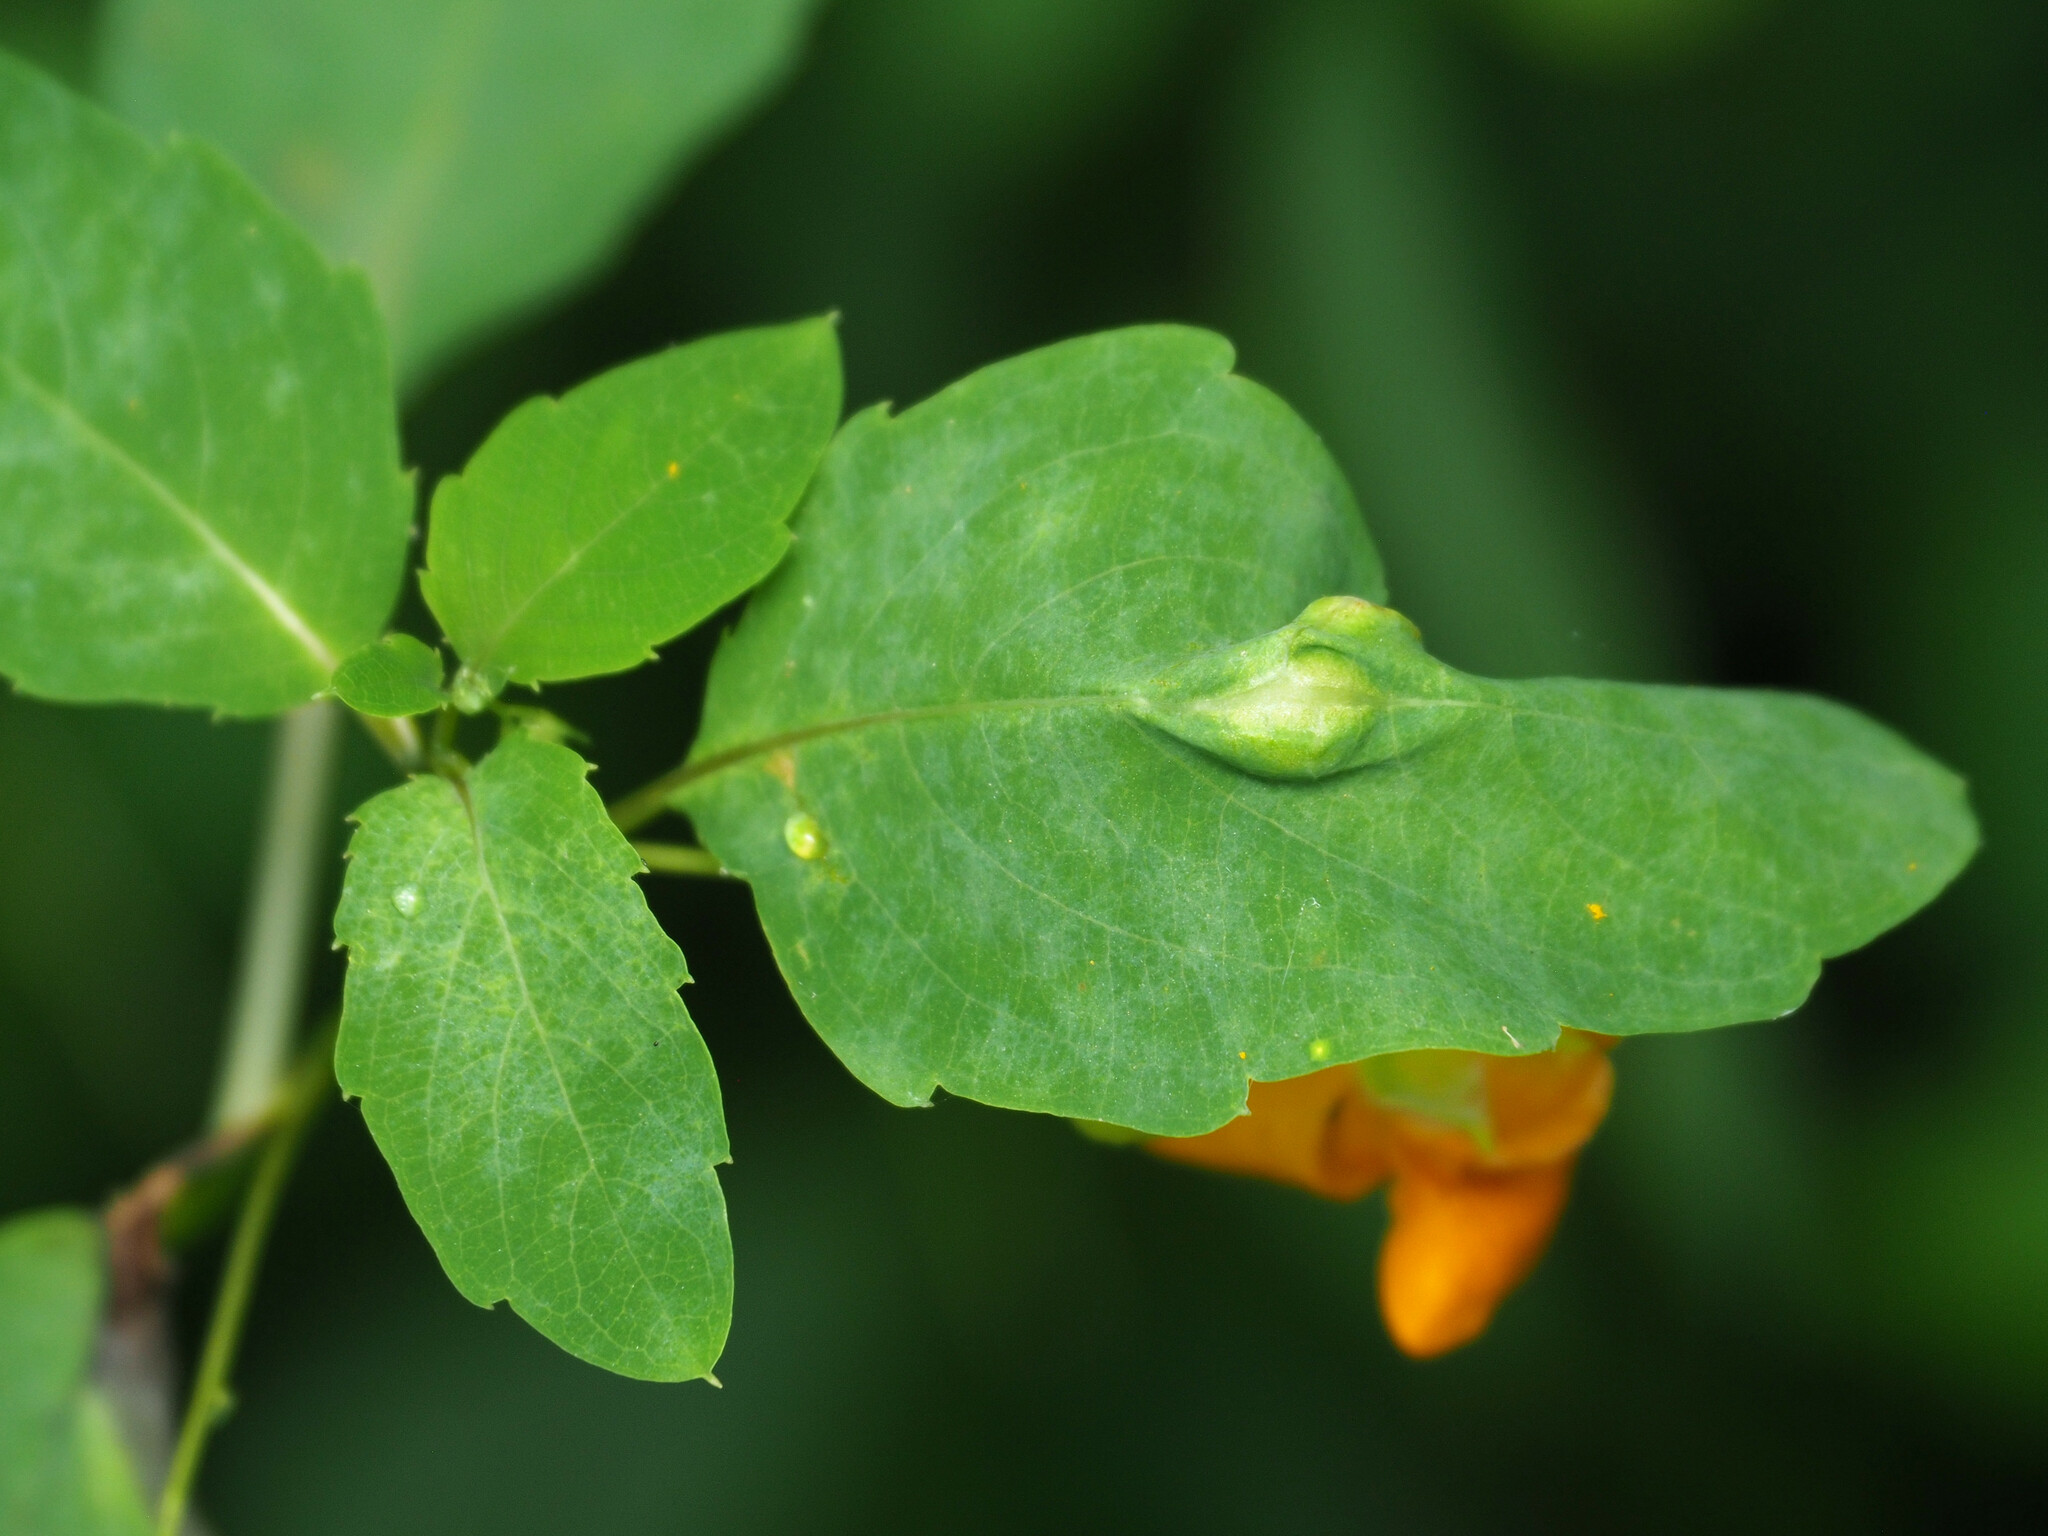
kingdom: Animalia
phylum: Arthropoda
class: Insecta
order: Diptera
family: Cecidomyiidae
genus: Neolasioptera
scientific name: Neolasioptera impatientifolia
